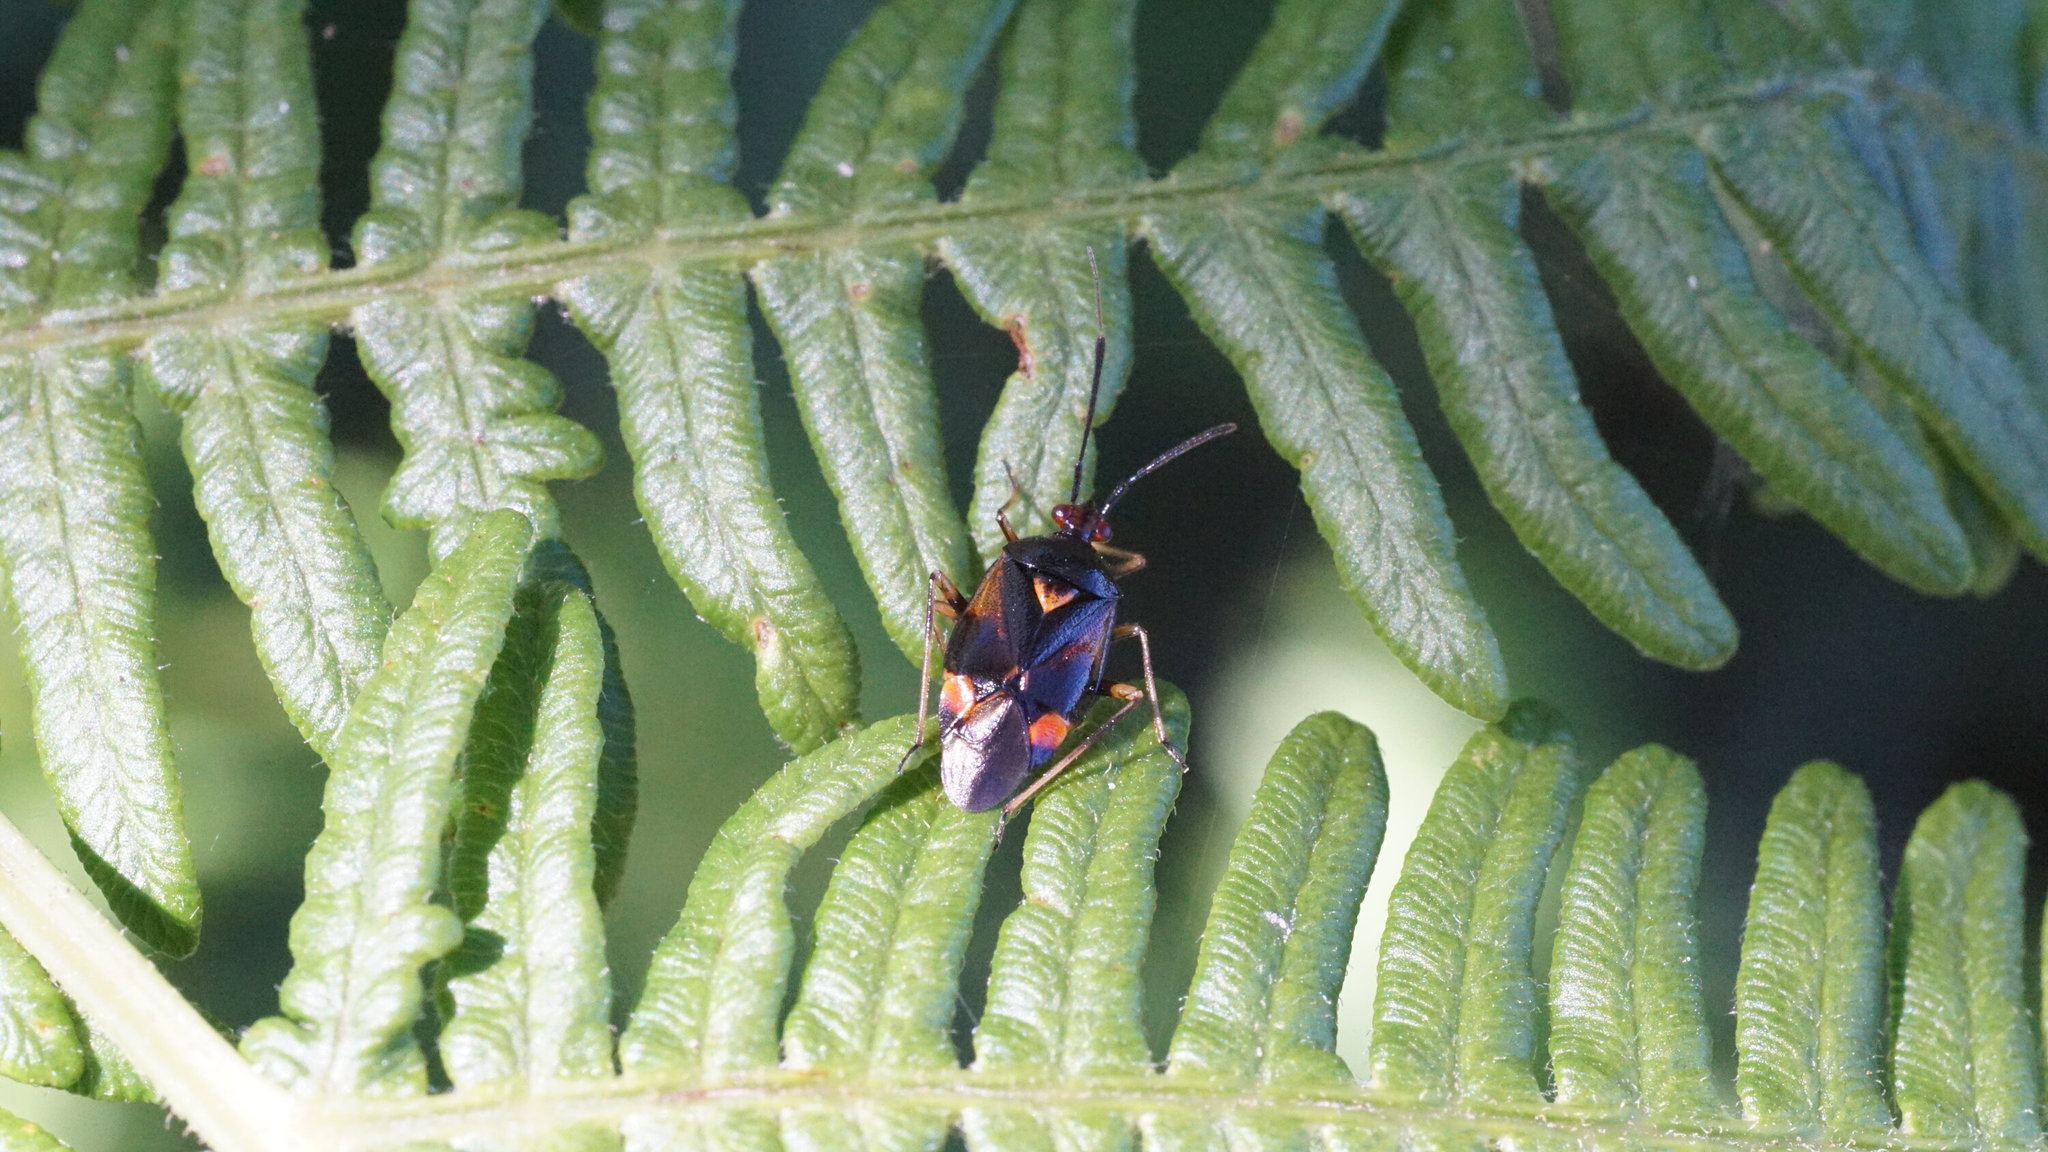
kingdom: Animalia
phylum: Arthropoda
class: Insecta
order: Hemiptera
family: Miridae
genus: Deraeocoris
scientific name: Deraeocoris ruber
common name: Plant bug
